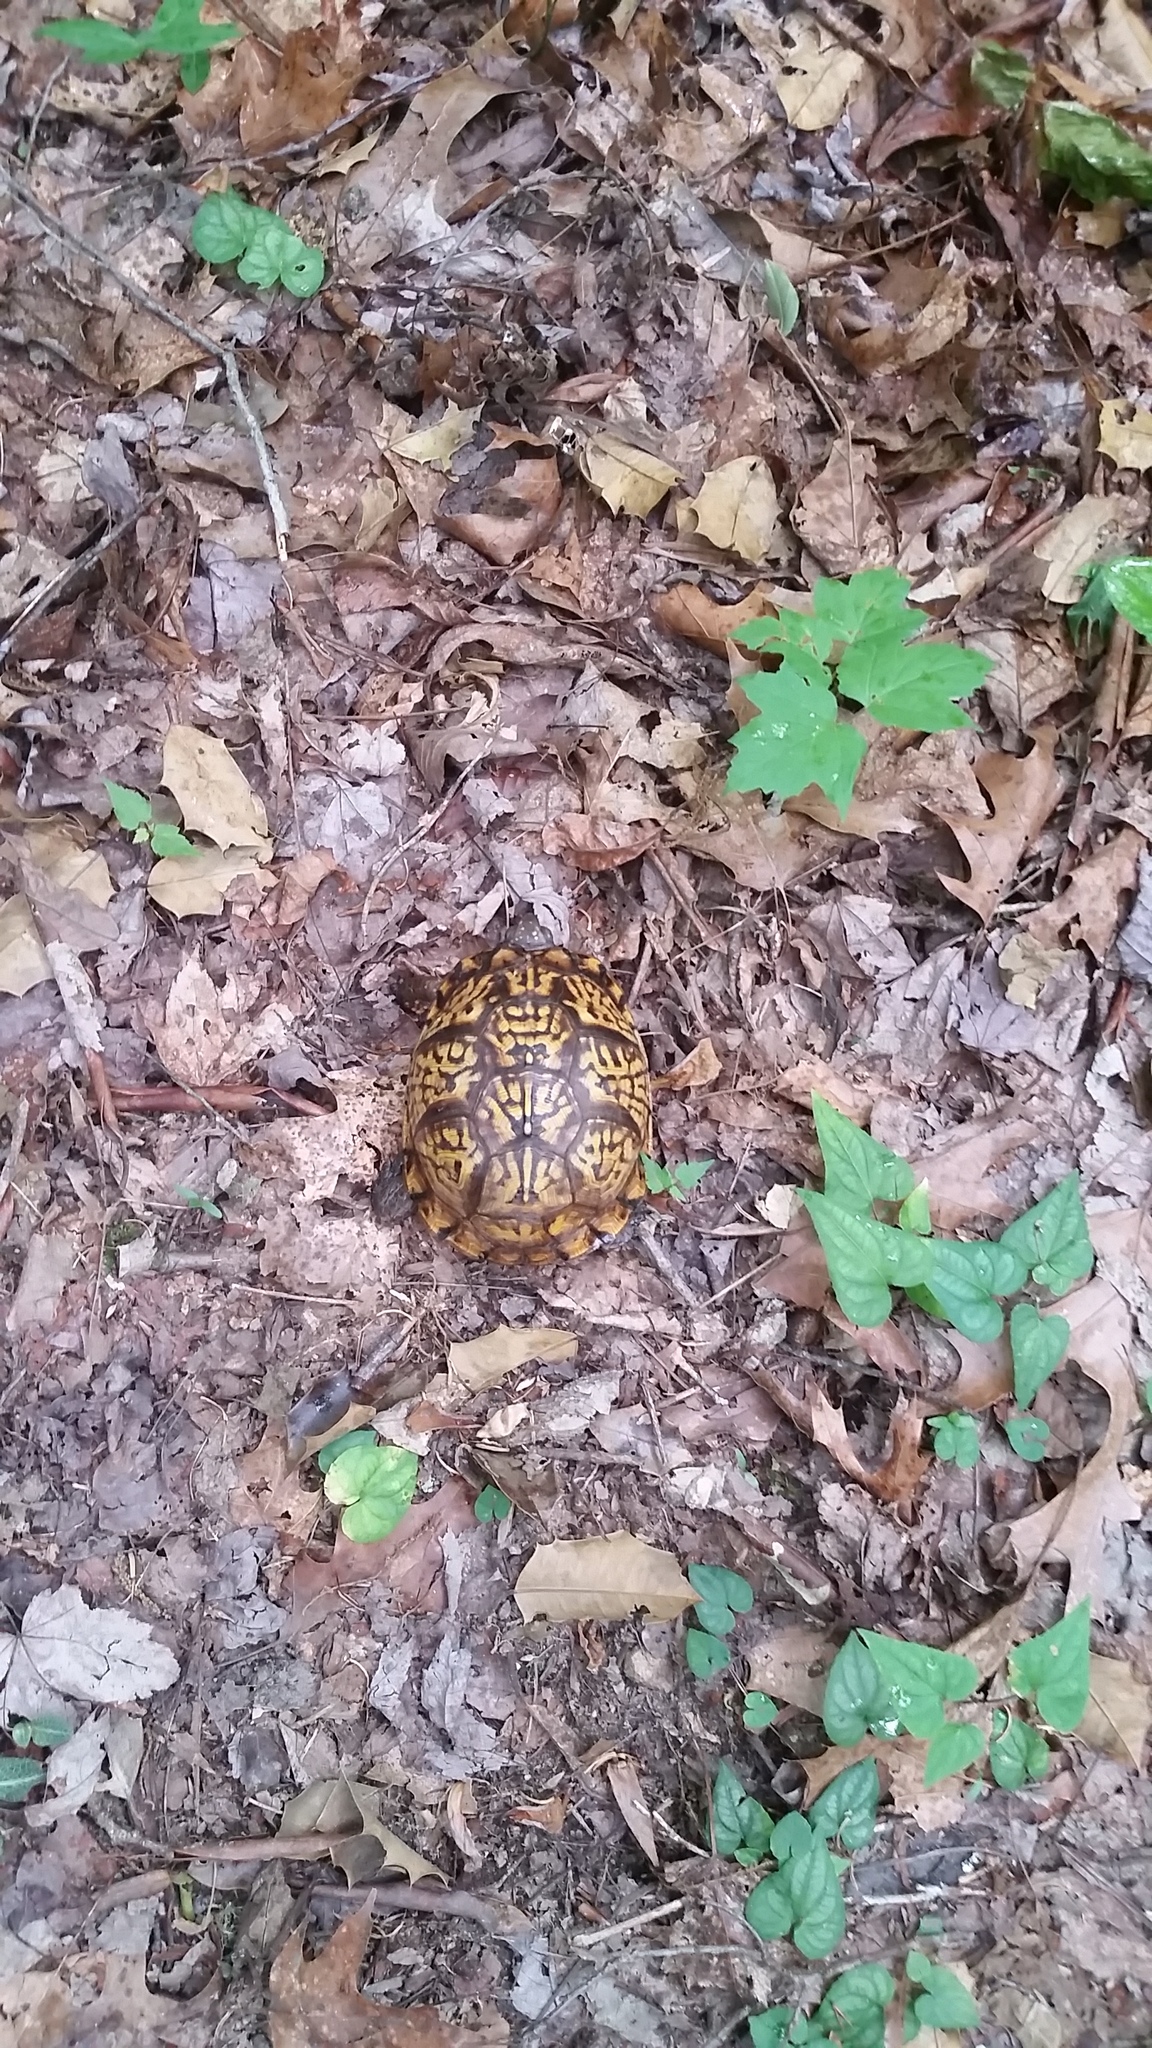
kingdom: Animalia
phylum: Chordata
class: Testudines
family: Emydidae
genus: Terrapene
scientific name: Terrapene carolina
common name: Common box turtle
